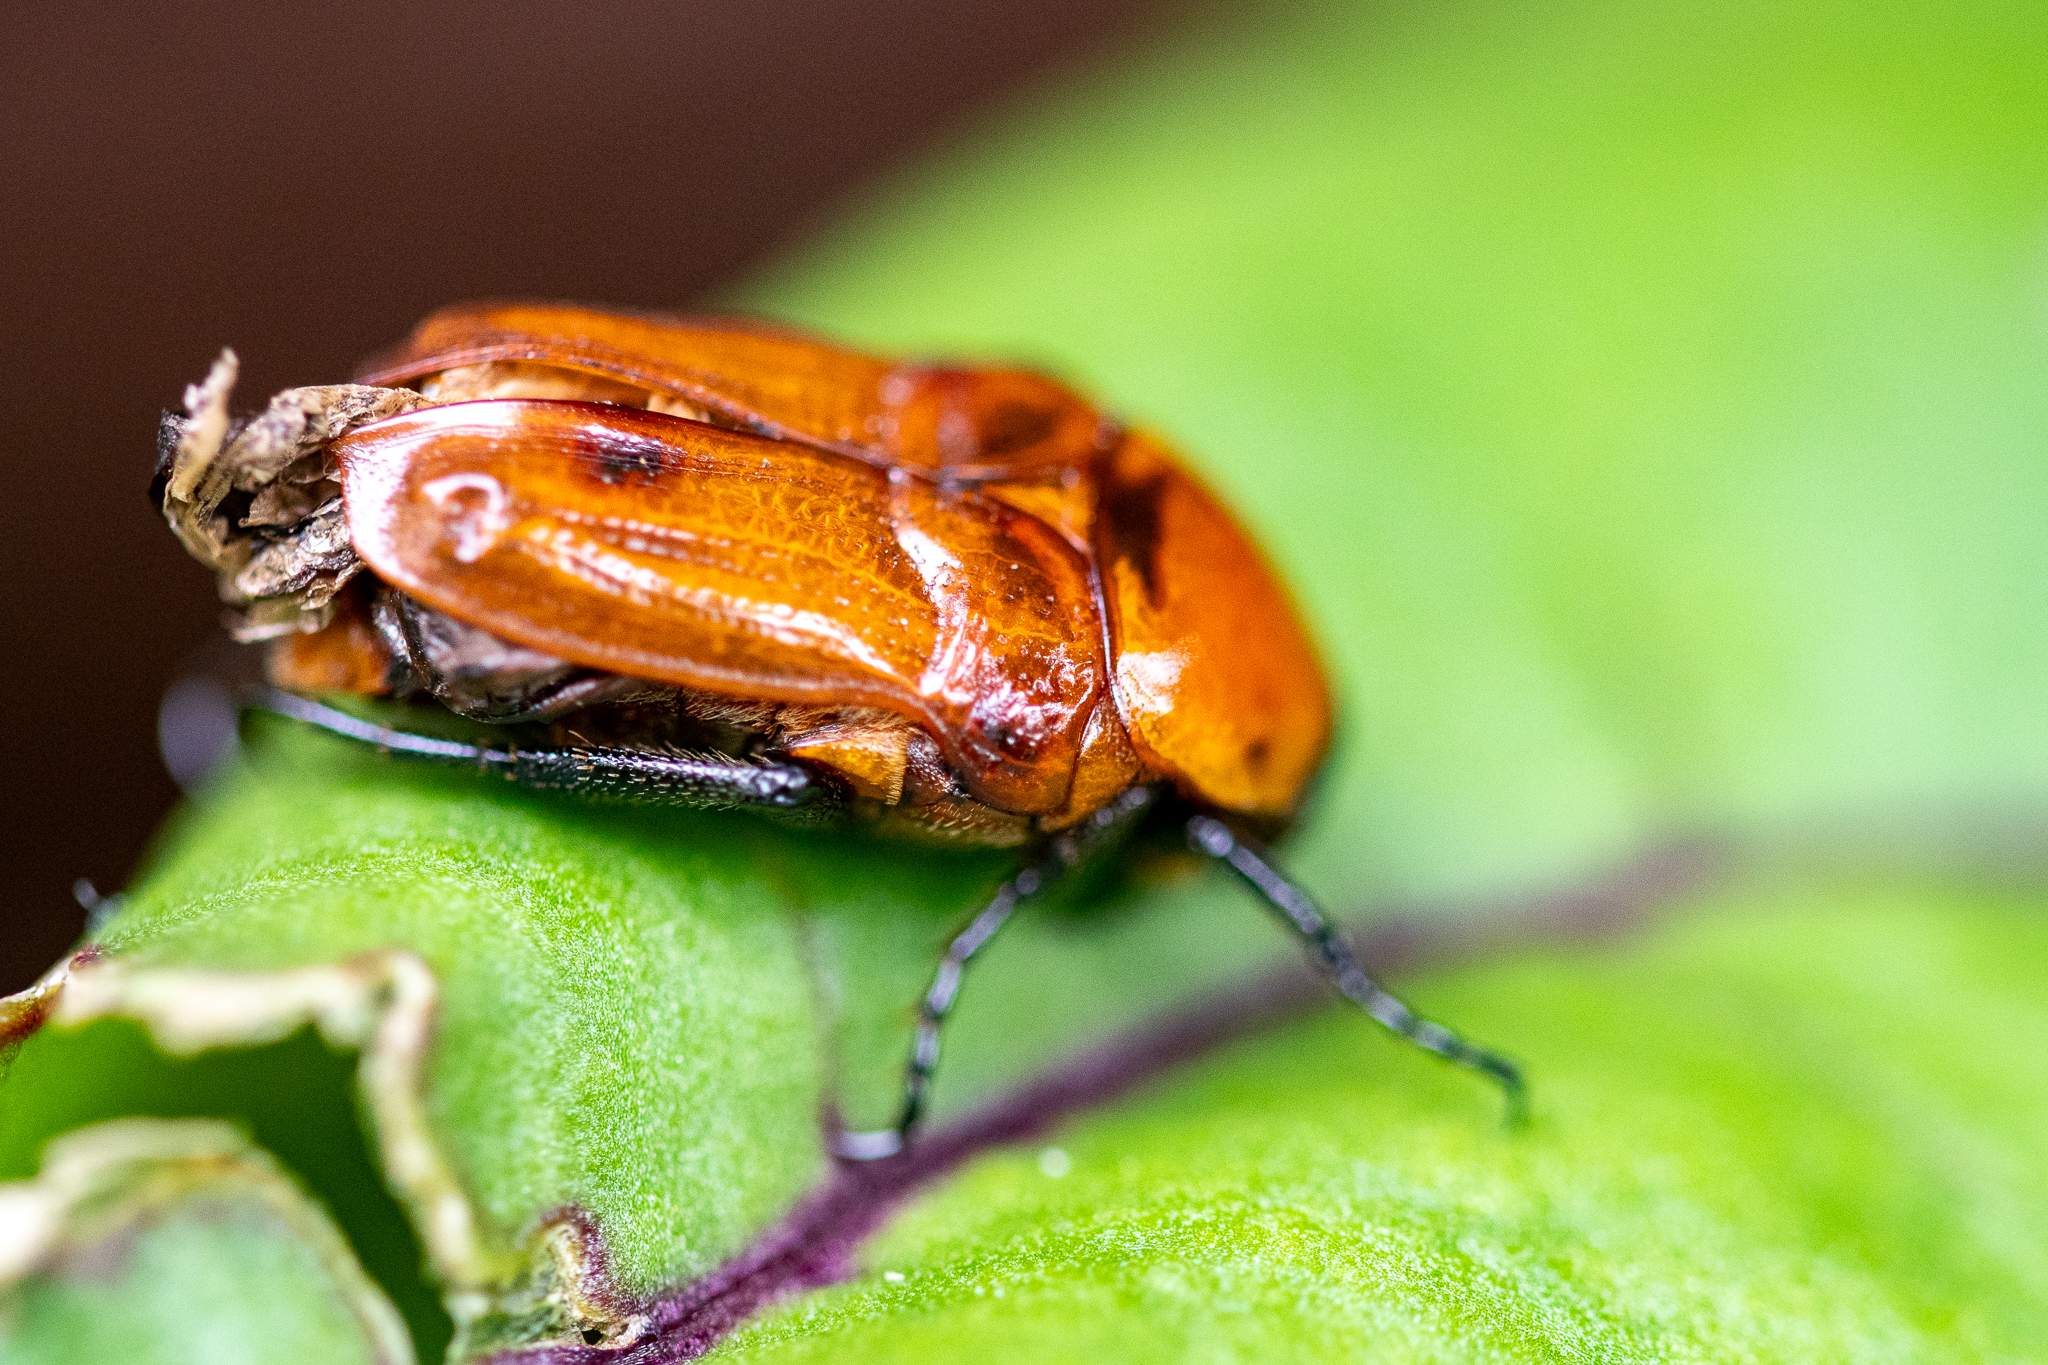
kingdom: Animalia
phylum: Arthropoda
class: Insecta
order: Coleoptera
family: Scarabaeidae
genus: Leucocelis
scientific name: Leucocelis rubra
